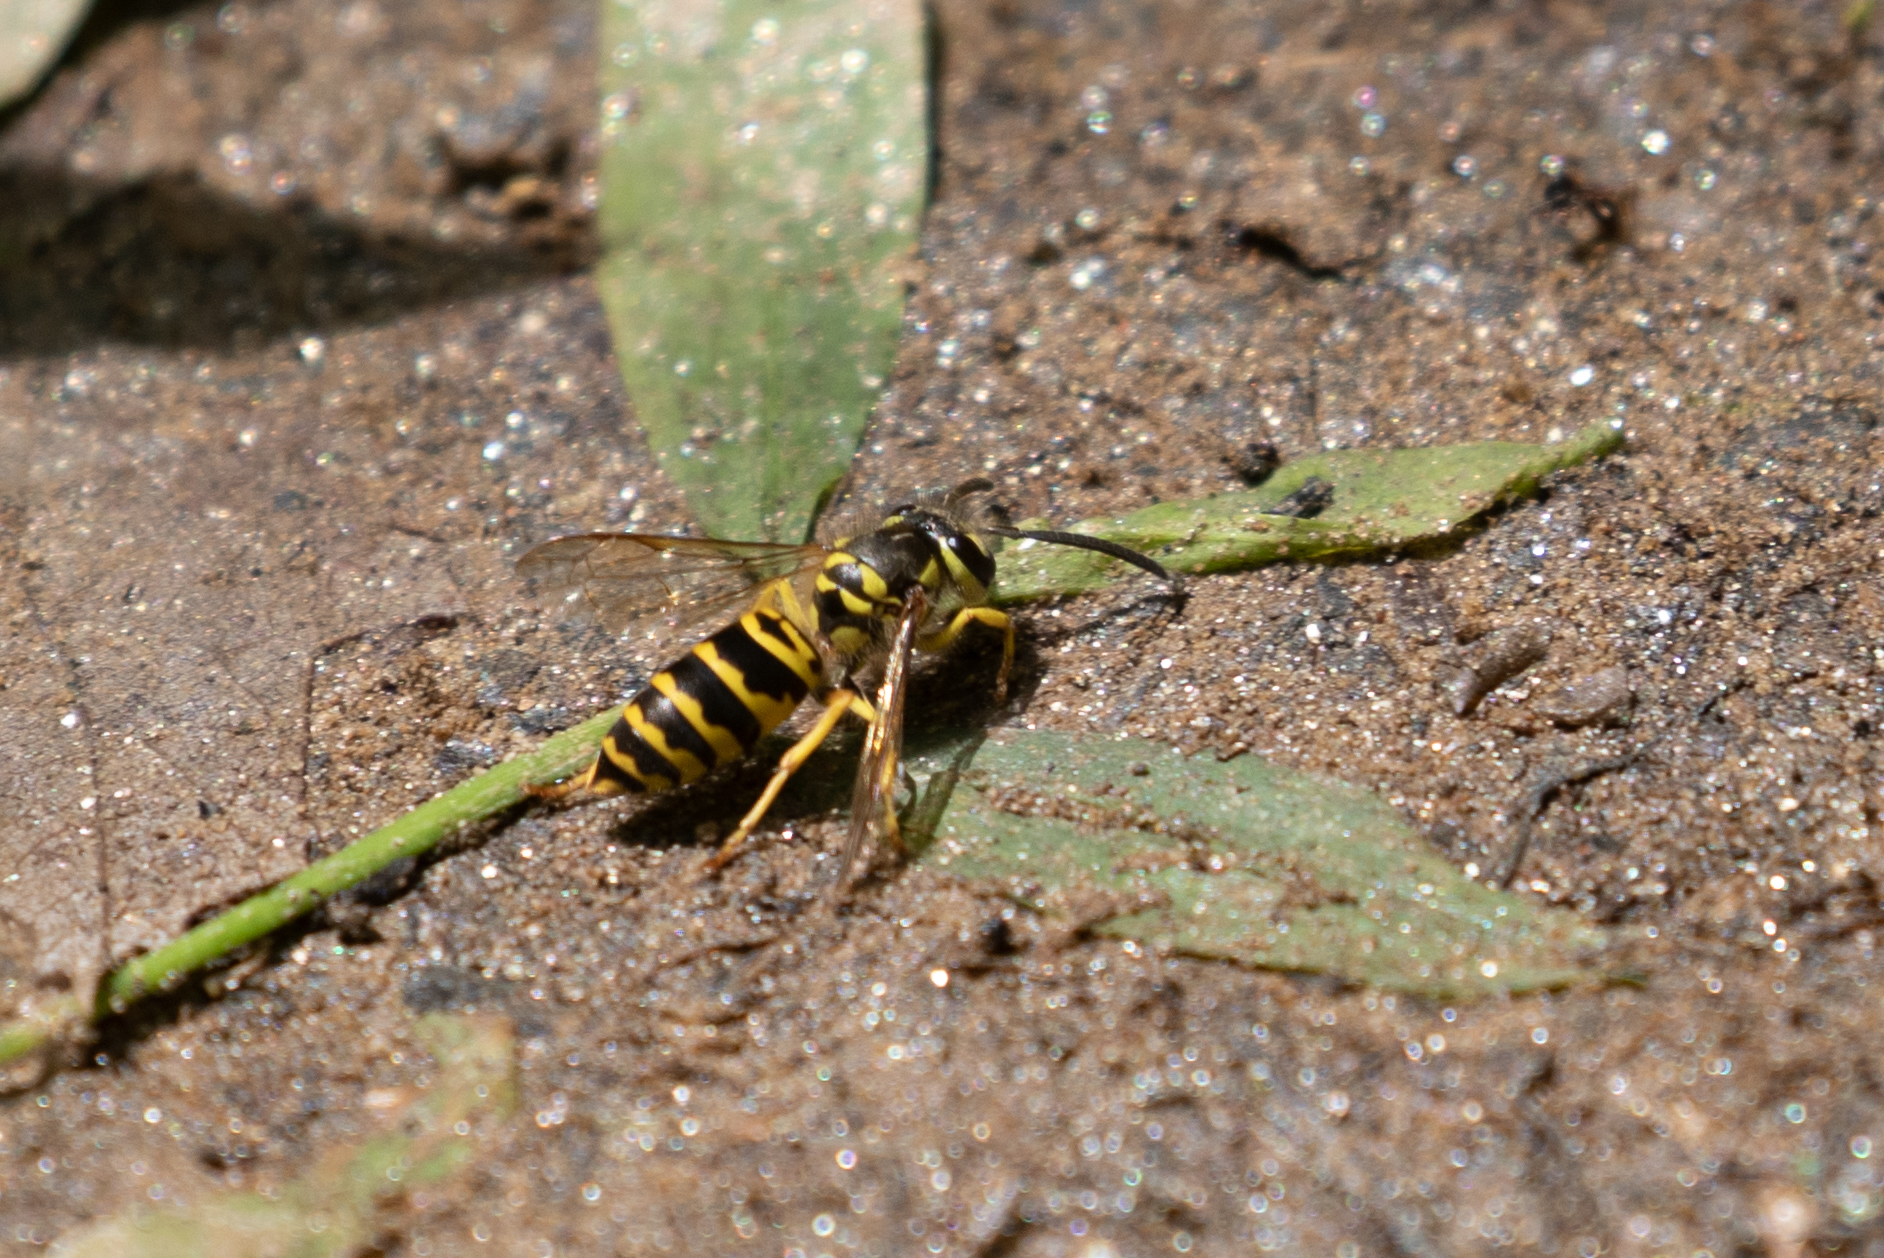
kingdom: Animalia
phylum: Arthropoda
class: Insecta
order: Hymenoptera
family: Vespidae
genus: Vespula
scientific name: Vespula maculifrons
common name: Eastern yellowjacket
